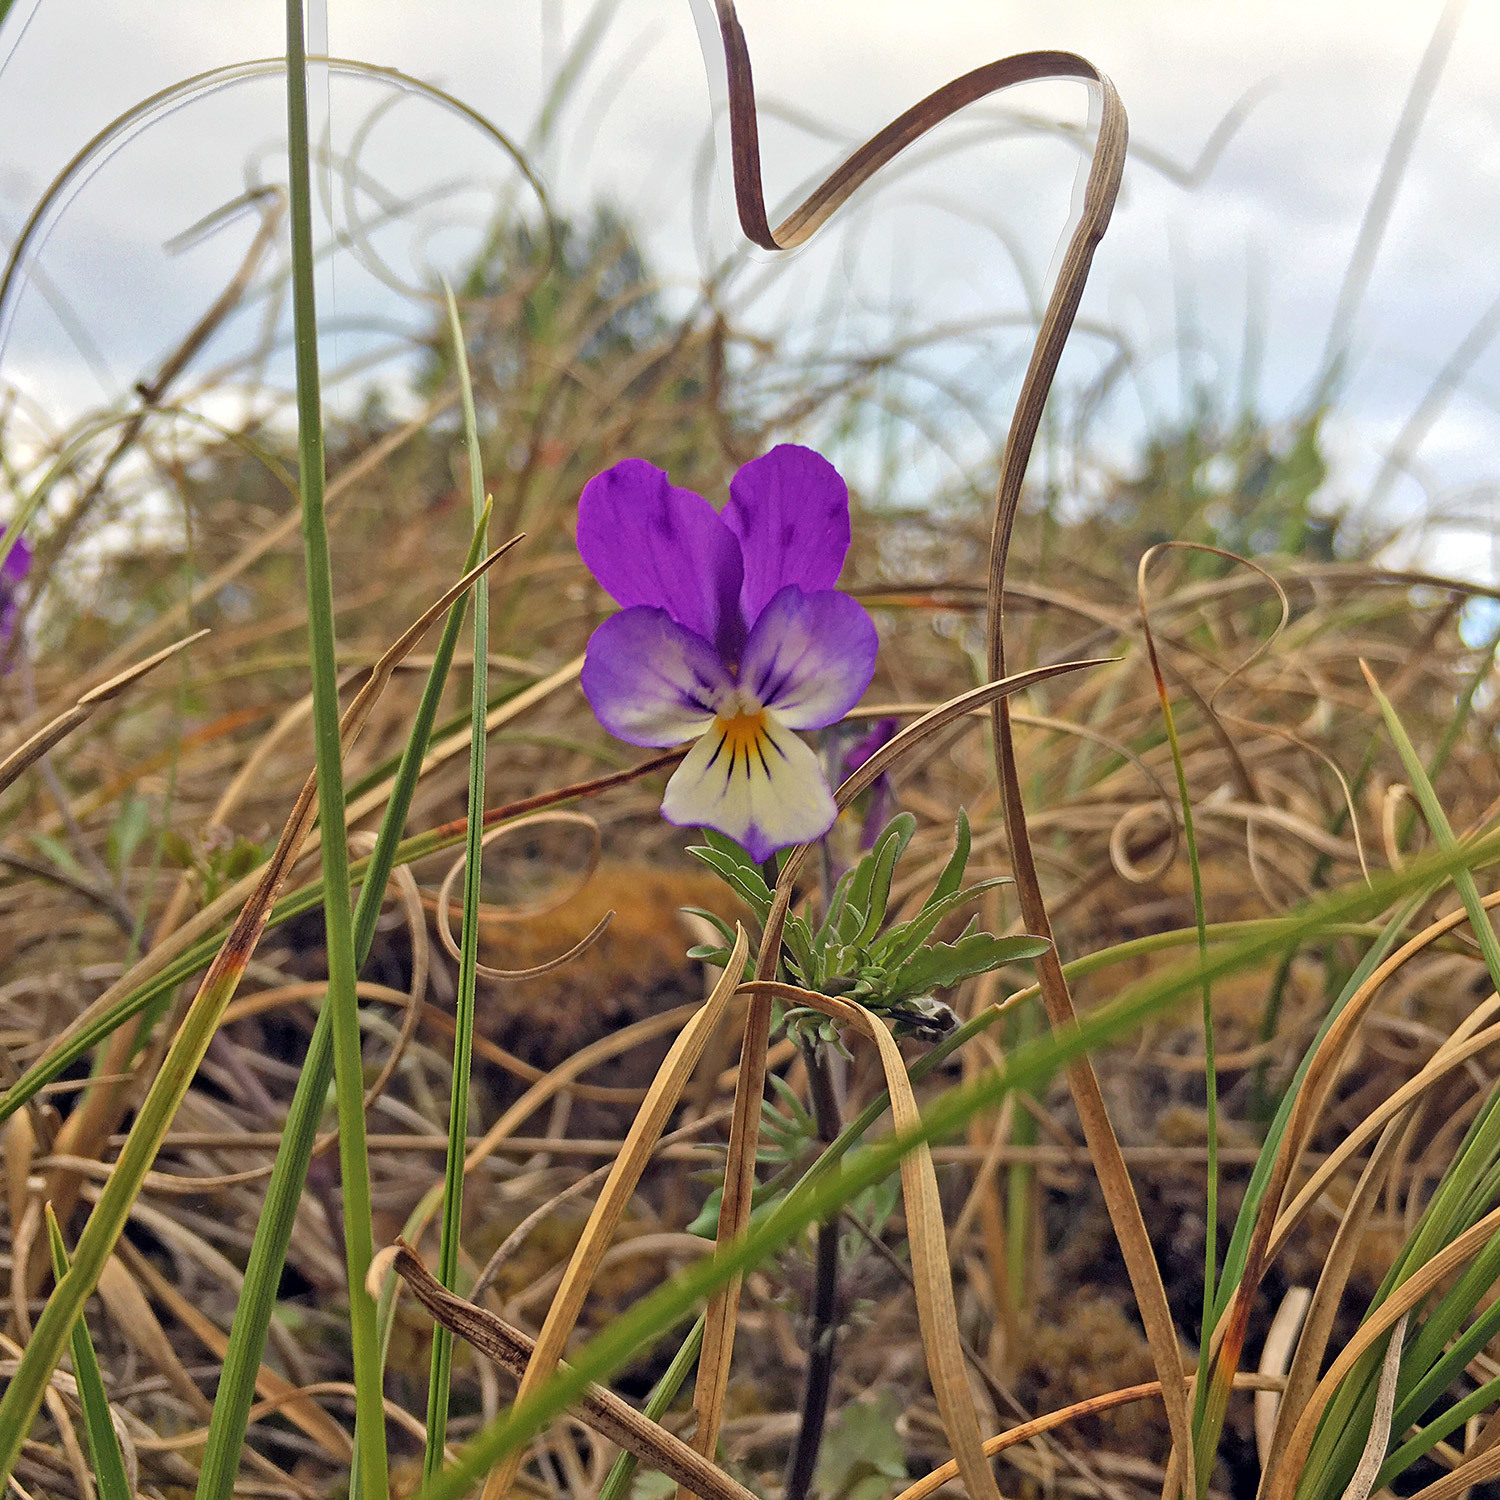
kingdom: Plantae
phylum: Tracheophyta
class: Magnoliopsida
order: Malpighiales
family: Violaceae
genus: Viola
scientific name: Viola tricolor
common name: Pansy
